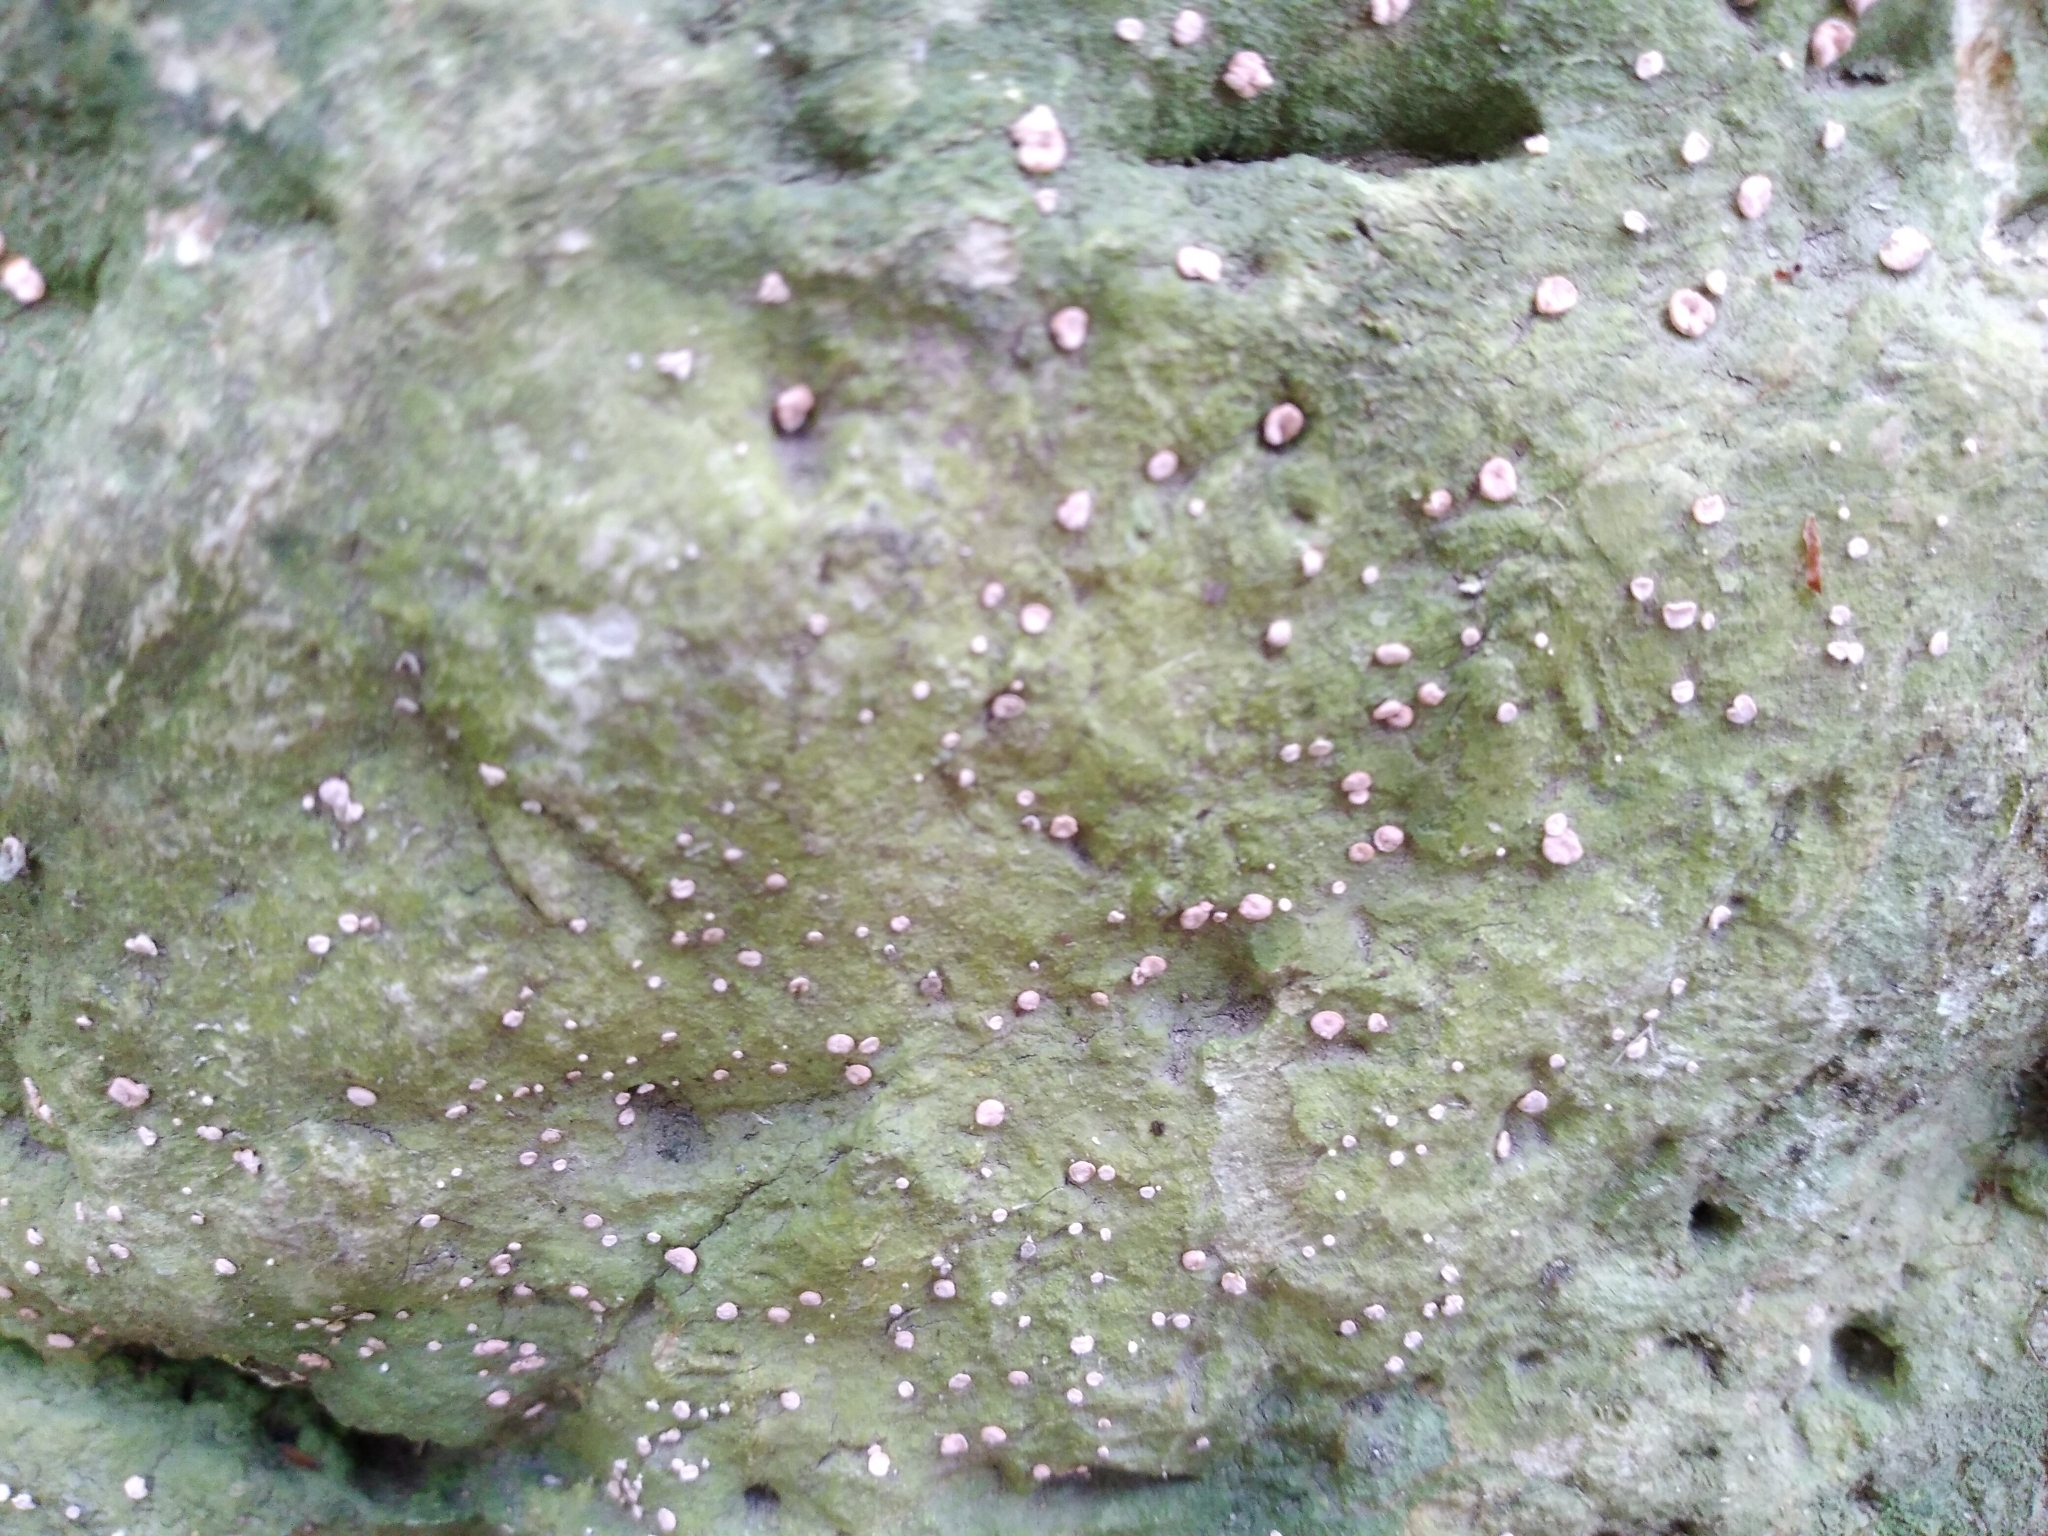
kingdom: Fungi
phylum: Ascomycota
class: Lecanoromycetes
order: Pertusariales
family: Icmadophilaceae
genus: Dibaeis
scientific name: Dibaeis absoluta
